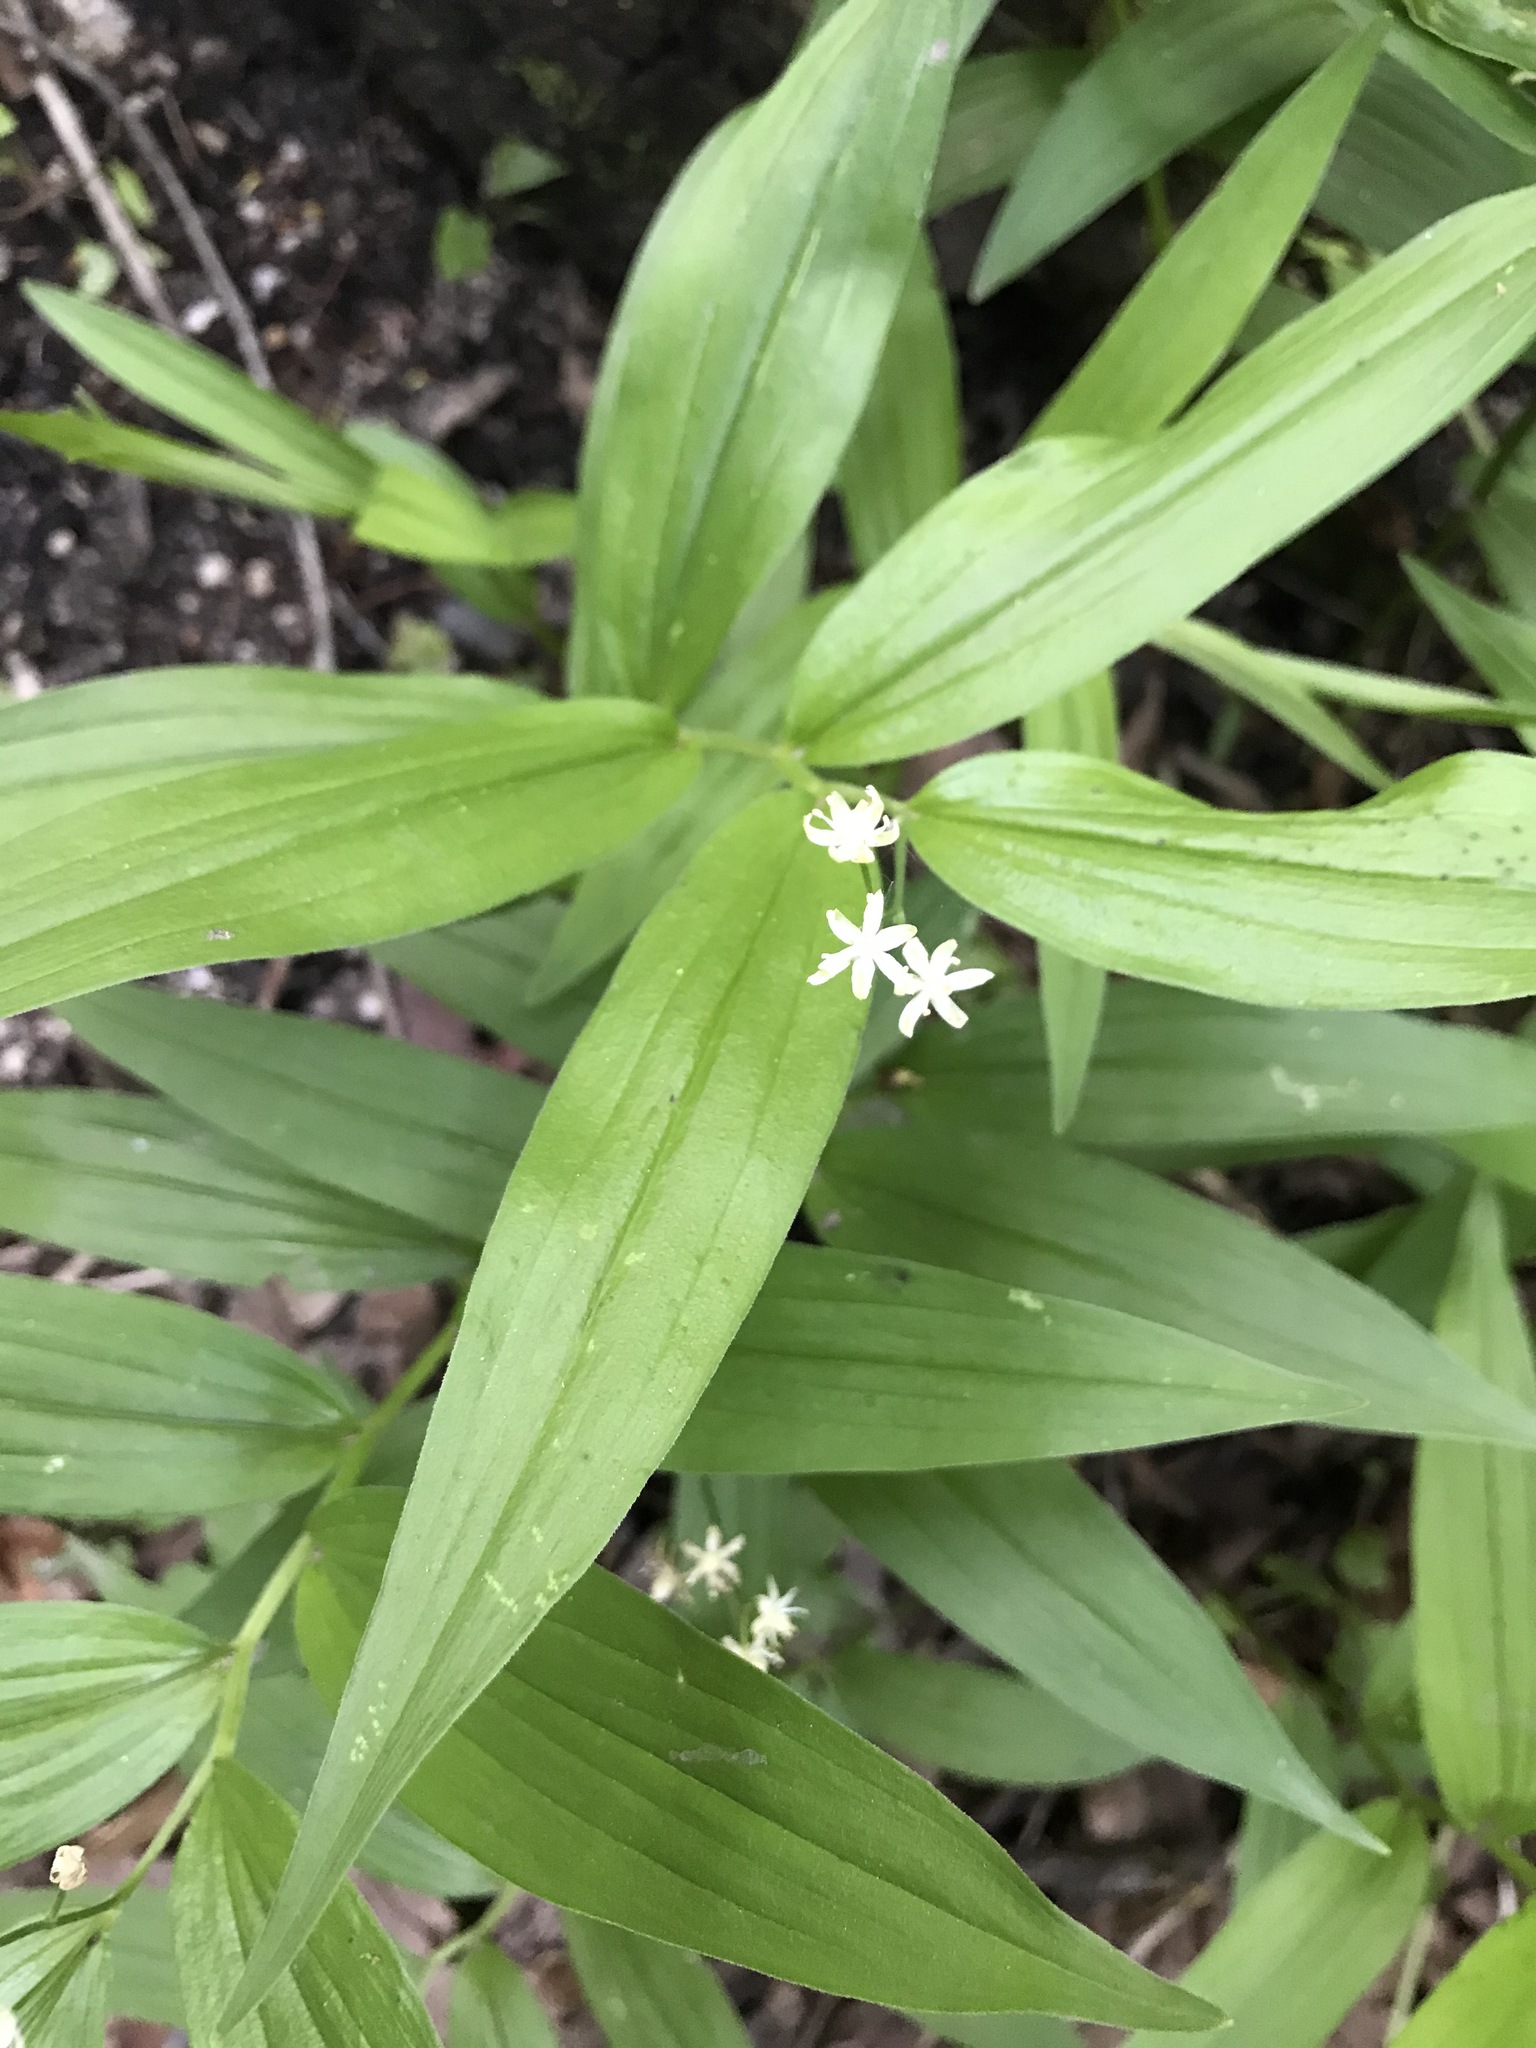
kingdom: Plantae
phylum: Tracheophyta
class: Liliopsida
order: Asparagales
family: Asparagaceae
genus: Maianthemum
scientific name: Maianthemum stellatum
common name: Little false solomon's seal
